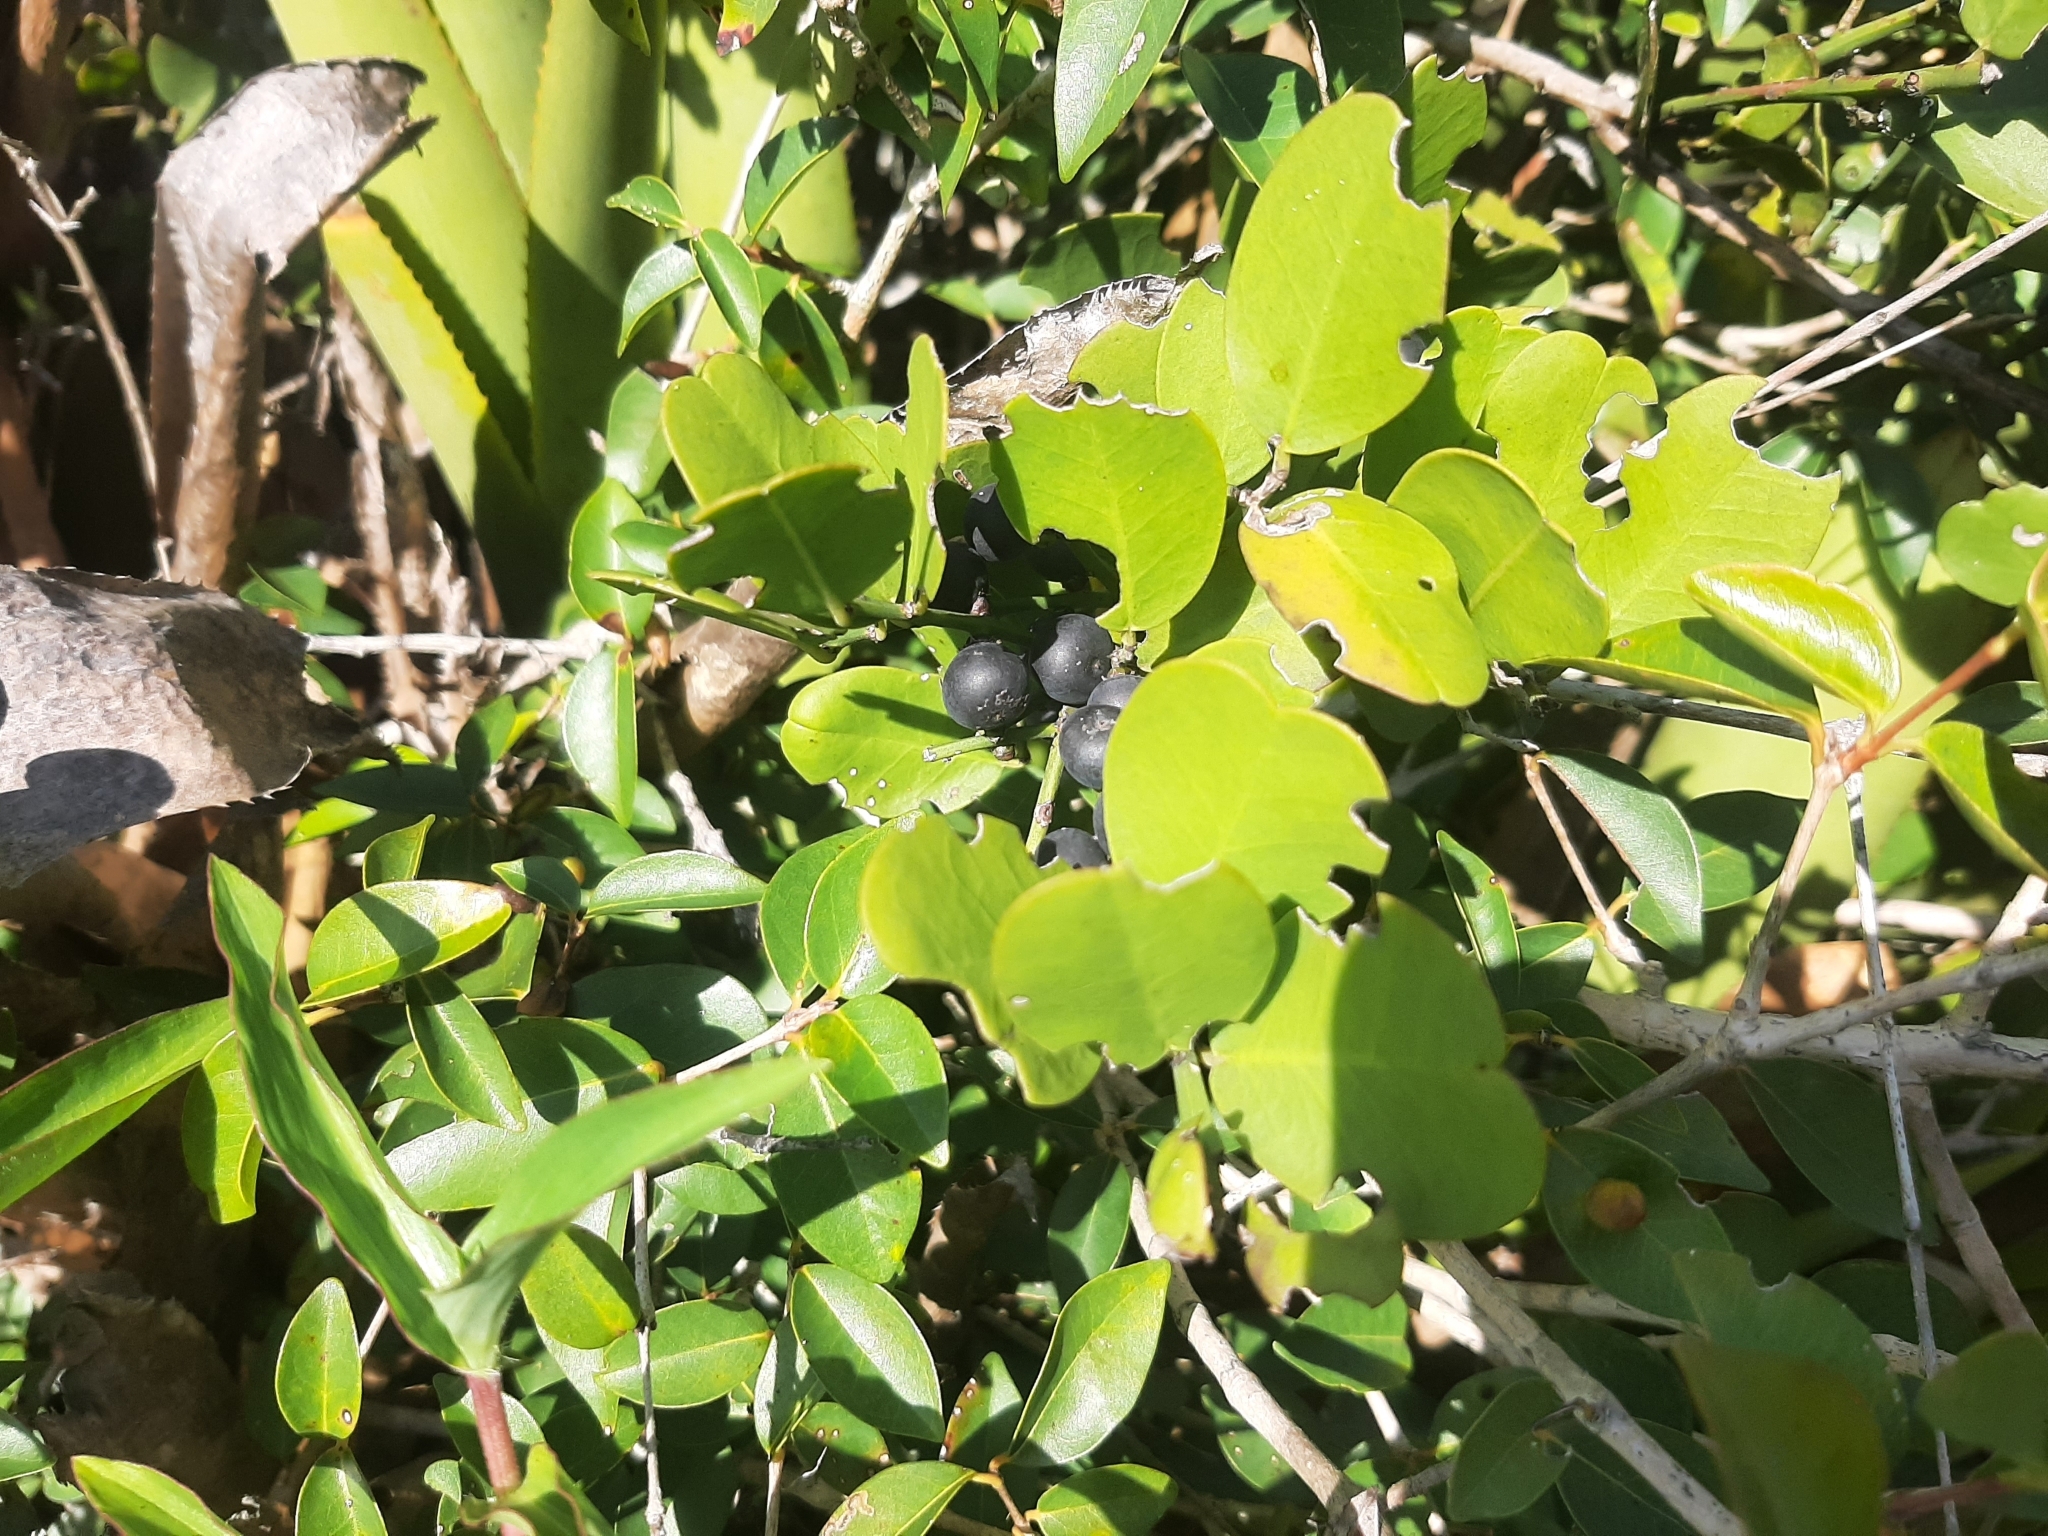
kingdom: Plantae
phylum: Tracheophyta
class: Magnoliopsida
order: Rosales
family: Rhamnaceae
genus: Scutia
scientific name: Scutia arenicola
